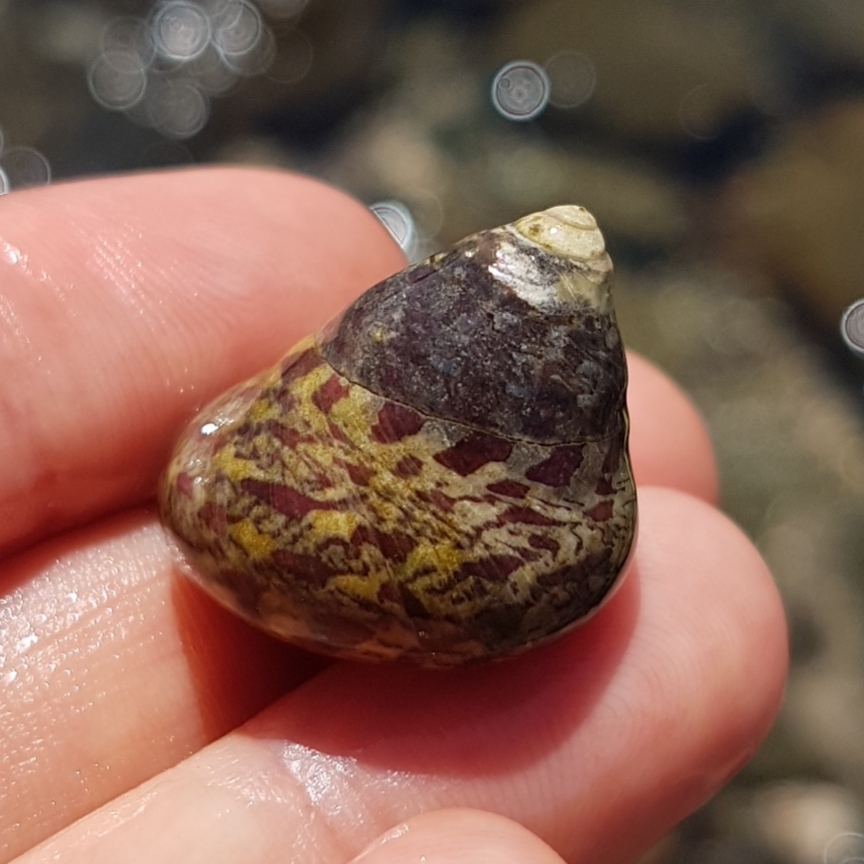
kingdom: Animalia
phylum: Mollusca
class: Gastropoda
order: Trochida
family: Trochidae
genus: Phorcus
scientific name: Phorcus articulatus
